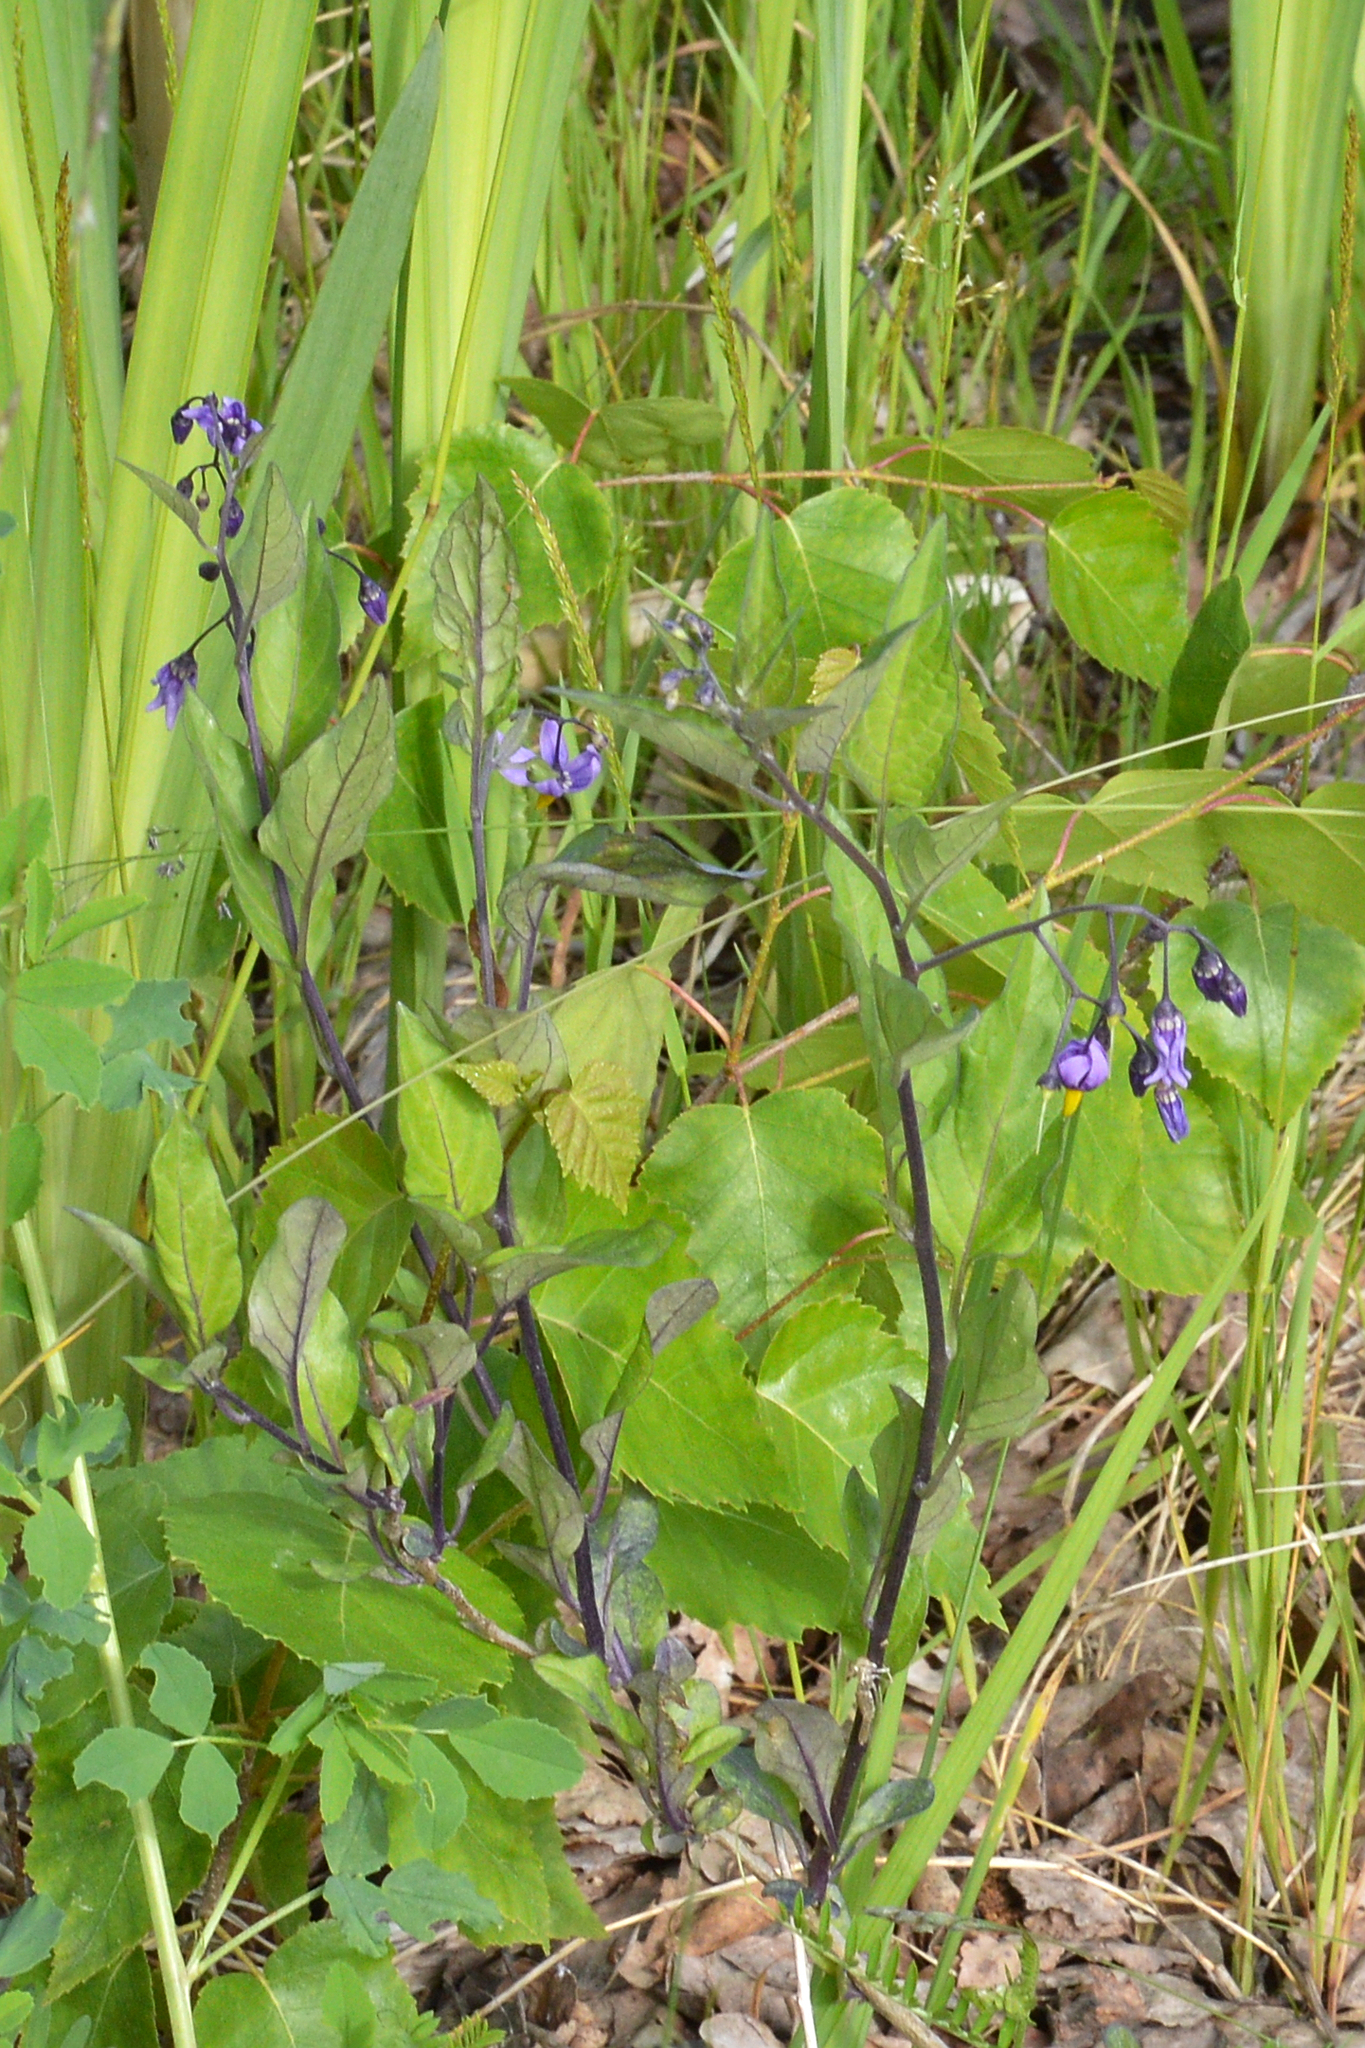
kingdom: Plantae
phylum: Tracheophyta
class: Magnoliopsida
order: Solanales
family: Solanaceae
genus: Solanum
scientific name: Solanum dulcamara
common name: Climbing nightshade
